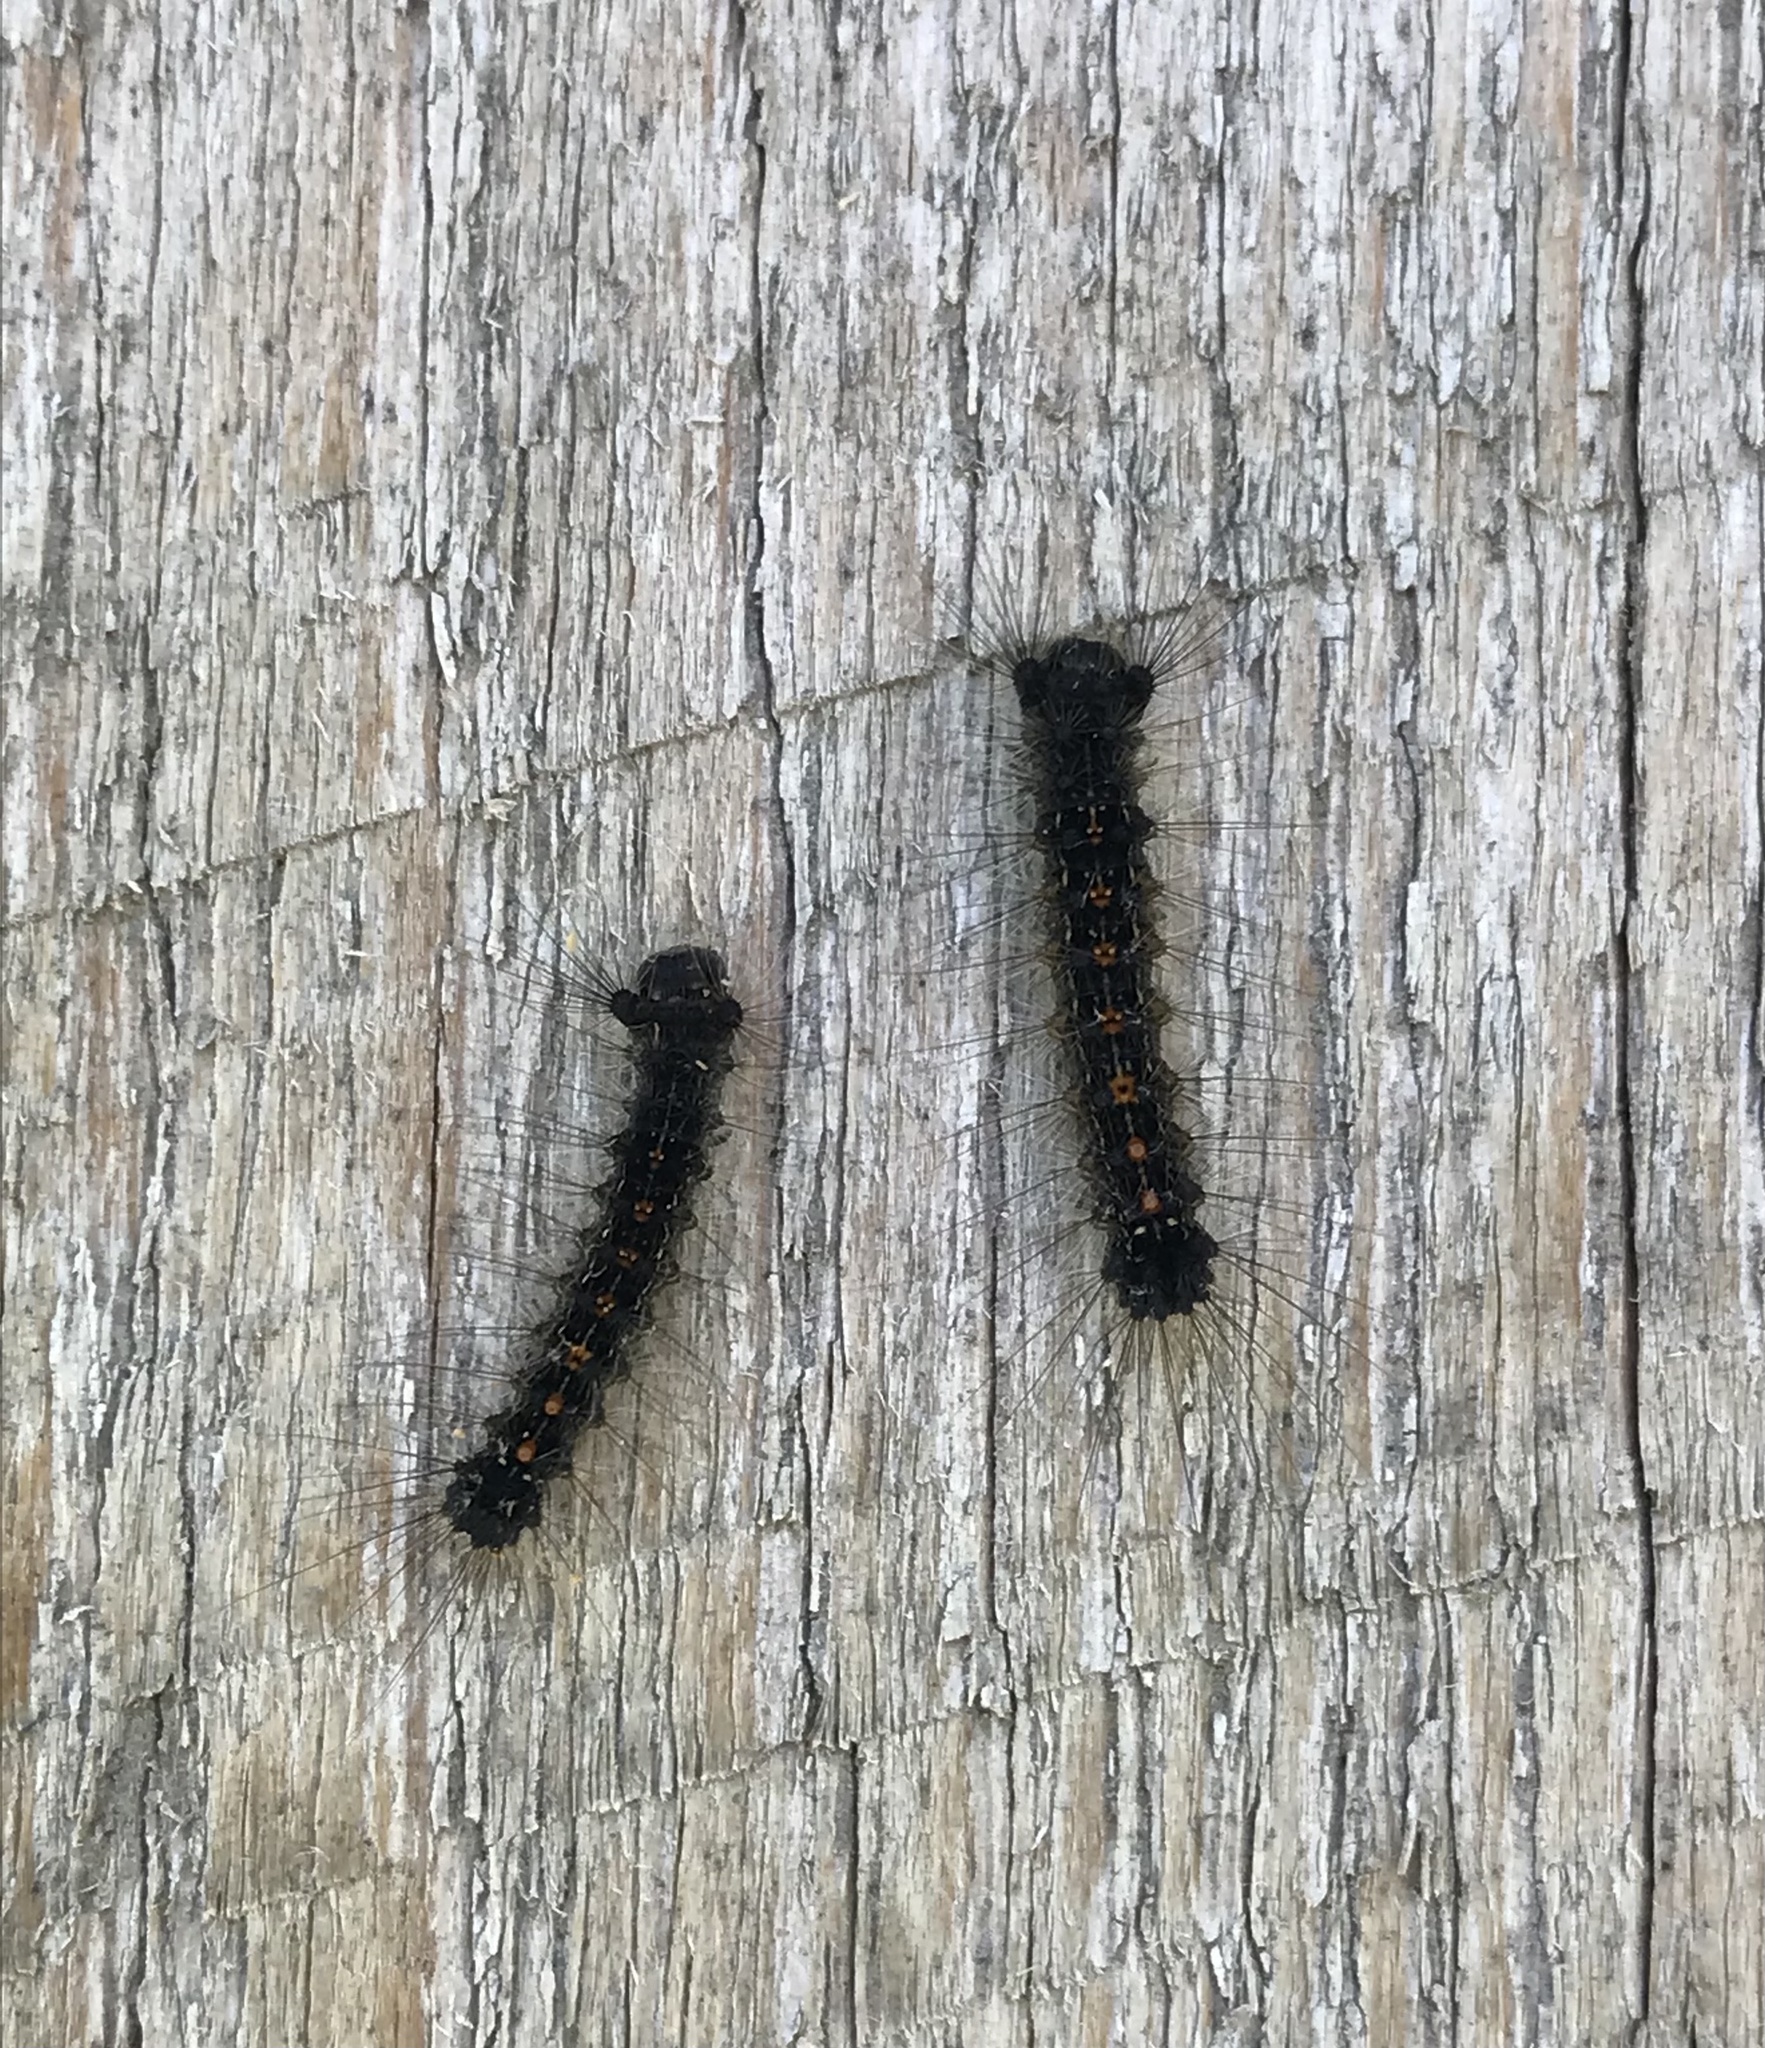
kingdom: Animalia
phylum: Arthropoda
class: Insecta
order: Lepidoptera
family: Erebidae
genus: Lymantria
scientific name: Lymantria dispar
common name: Gypsy moth
